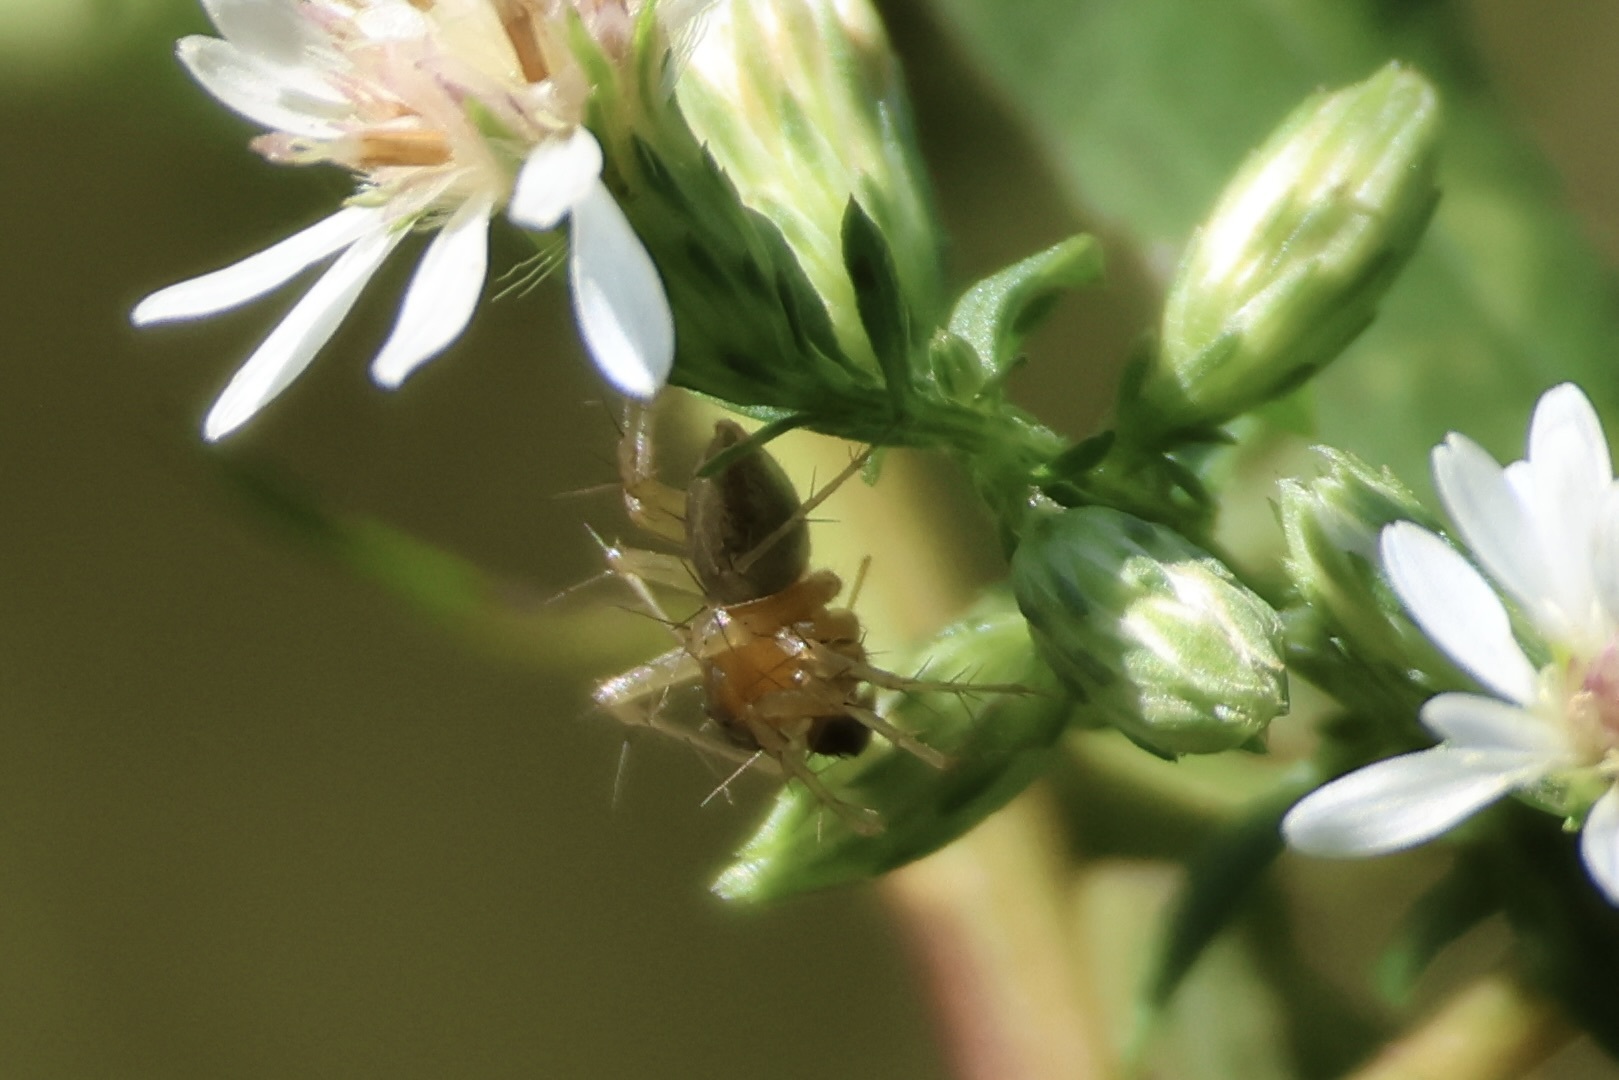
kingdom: Animalia
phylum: Arthropoda
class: Arachnida
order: Araneae
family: Oxyopidae
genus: Oxyopes
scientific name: Oxyopes salticus
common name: Lynx spiders
